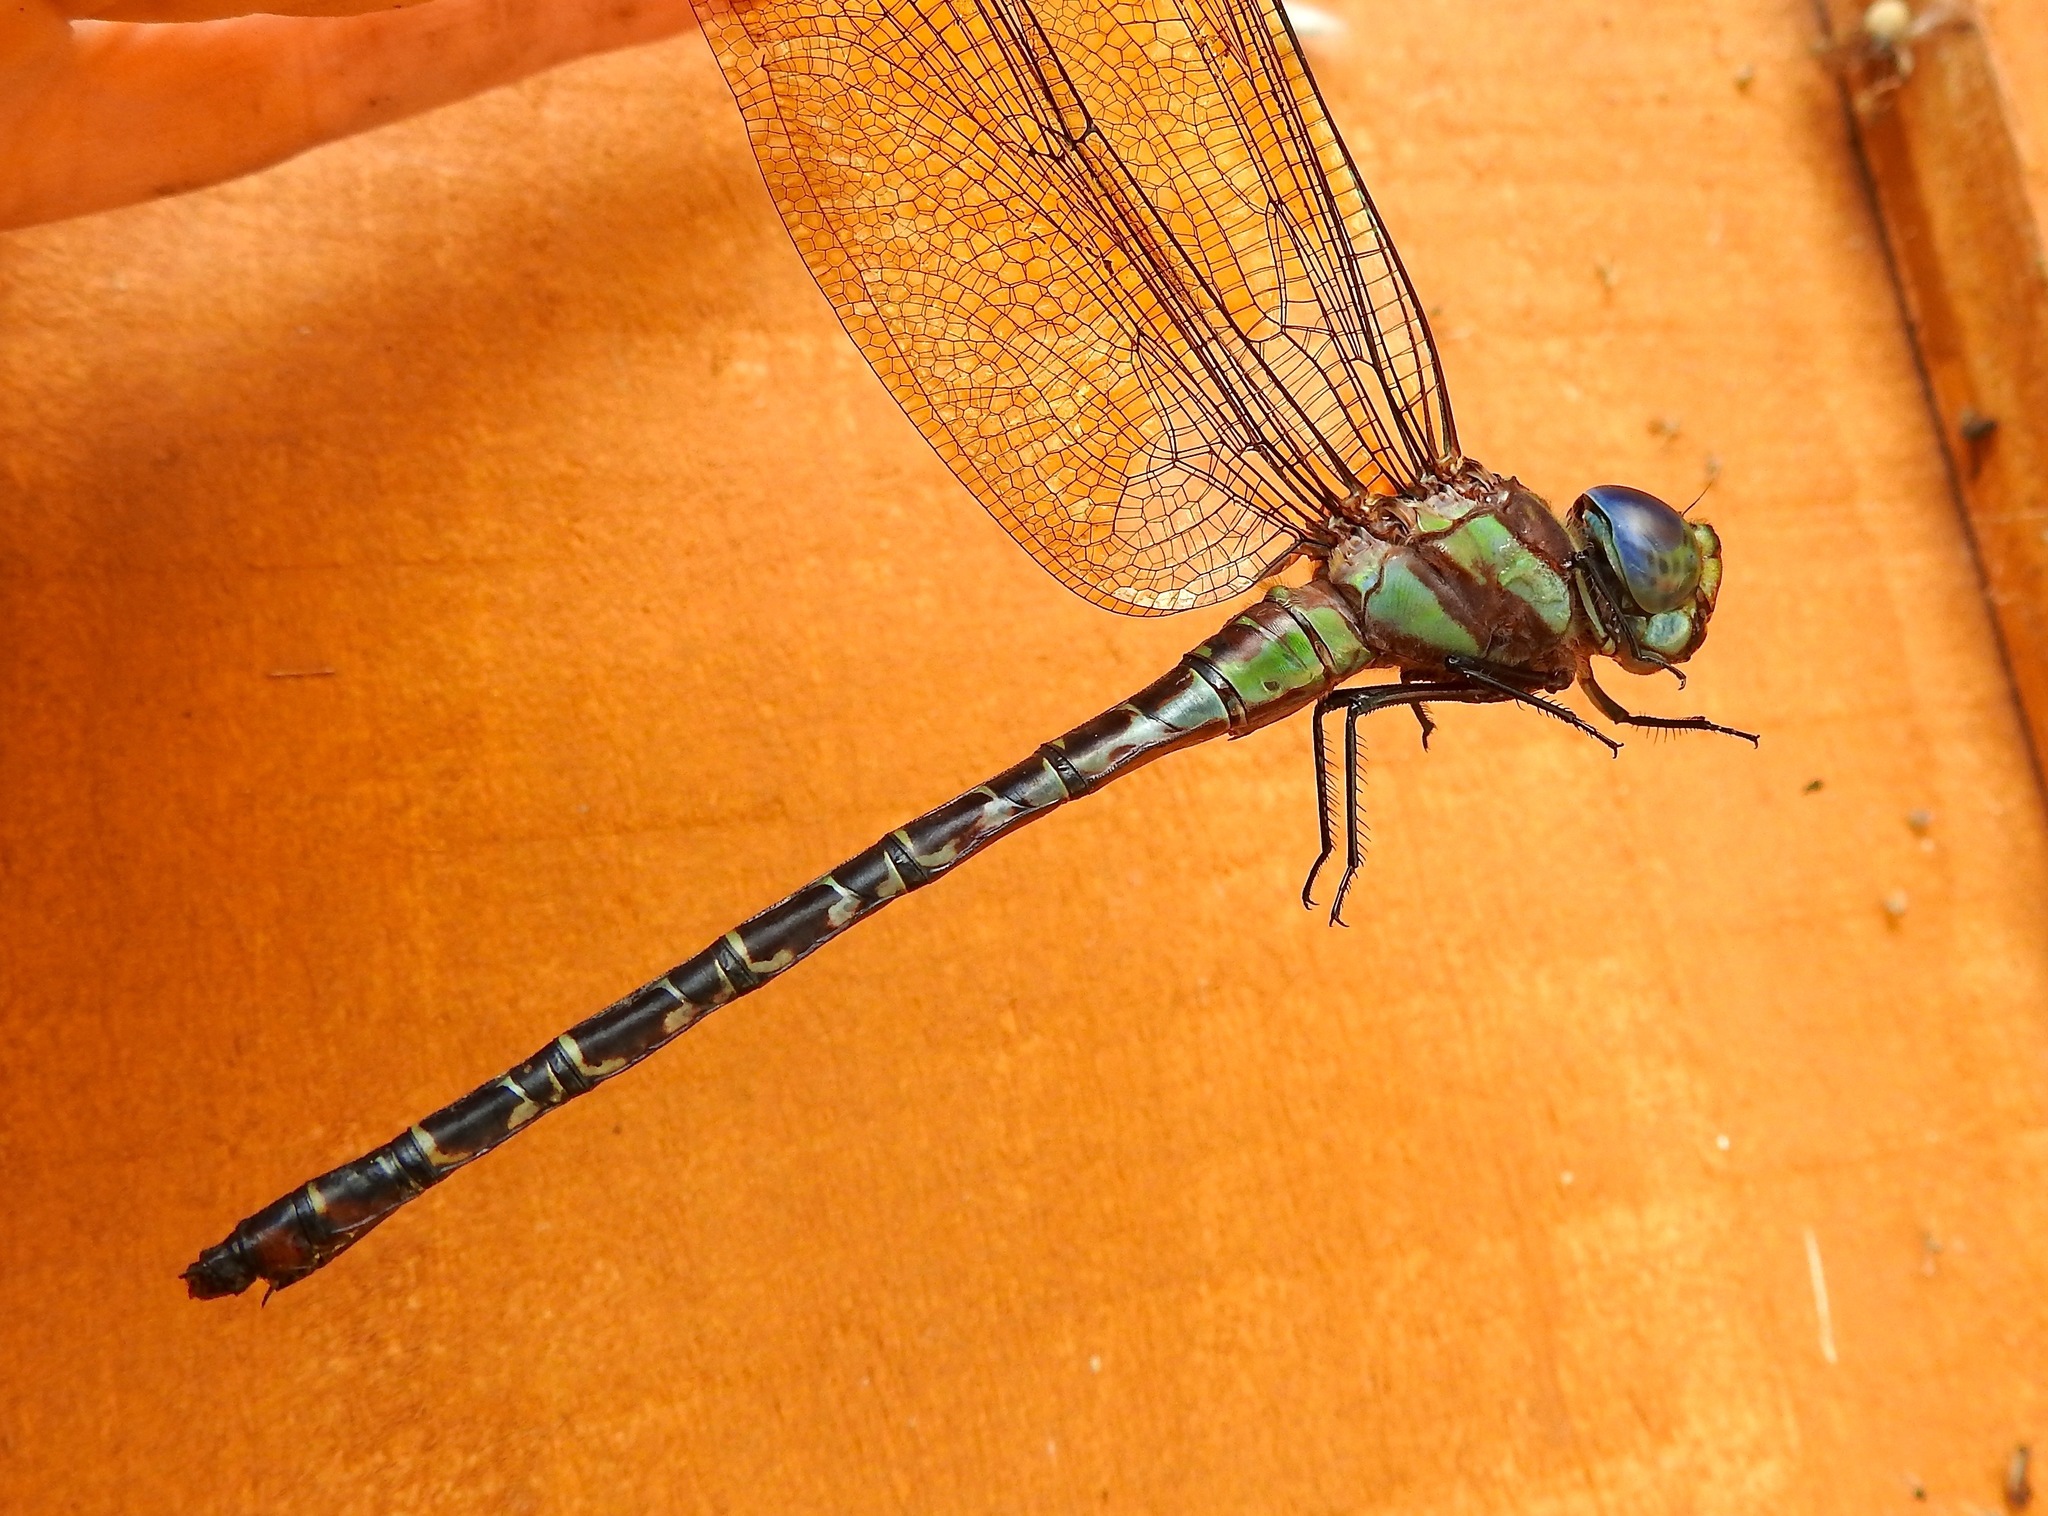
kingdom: Animalia
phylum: Arthropoda
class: Insecta
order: Odonata
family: Aeshnidae
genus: Coryphaeschna
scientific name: Coryphaeschna ingens
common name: Regal darner
